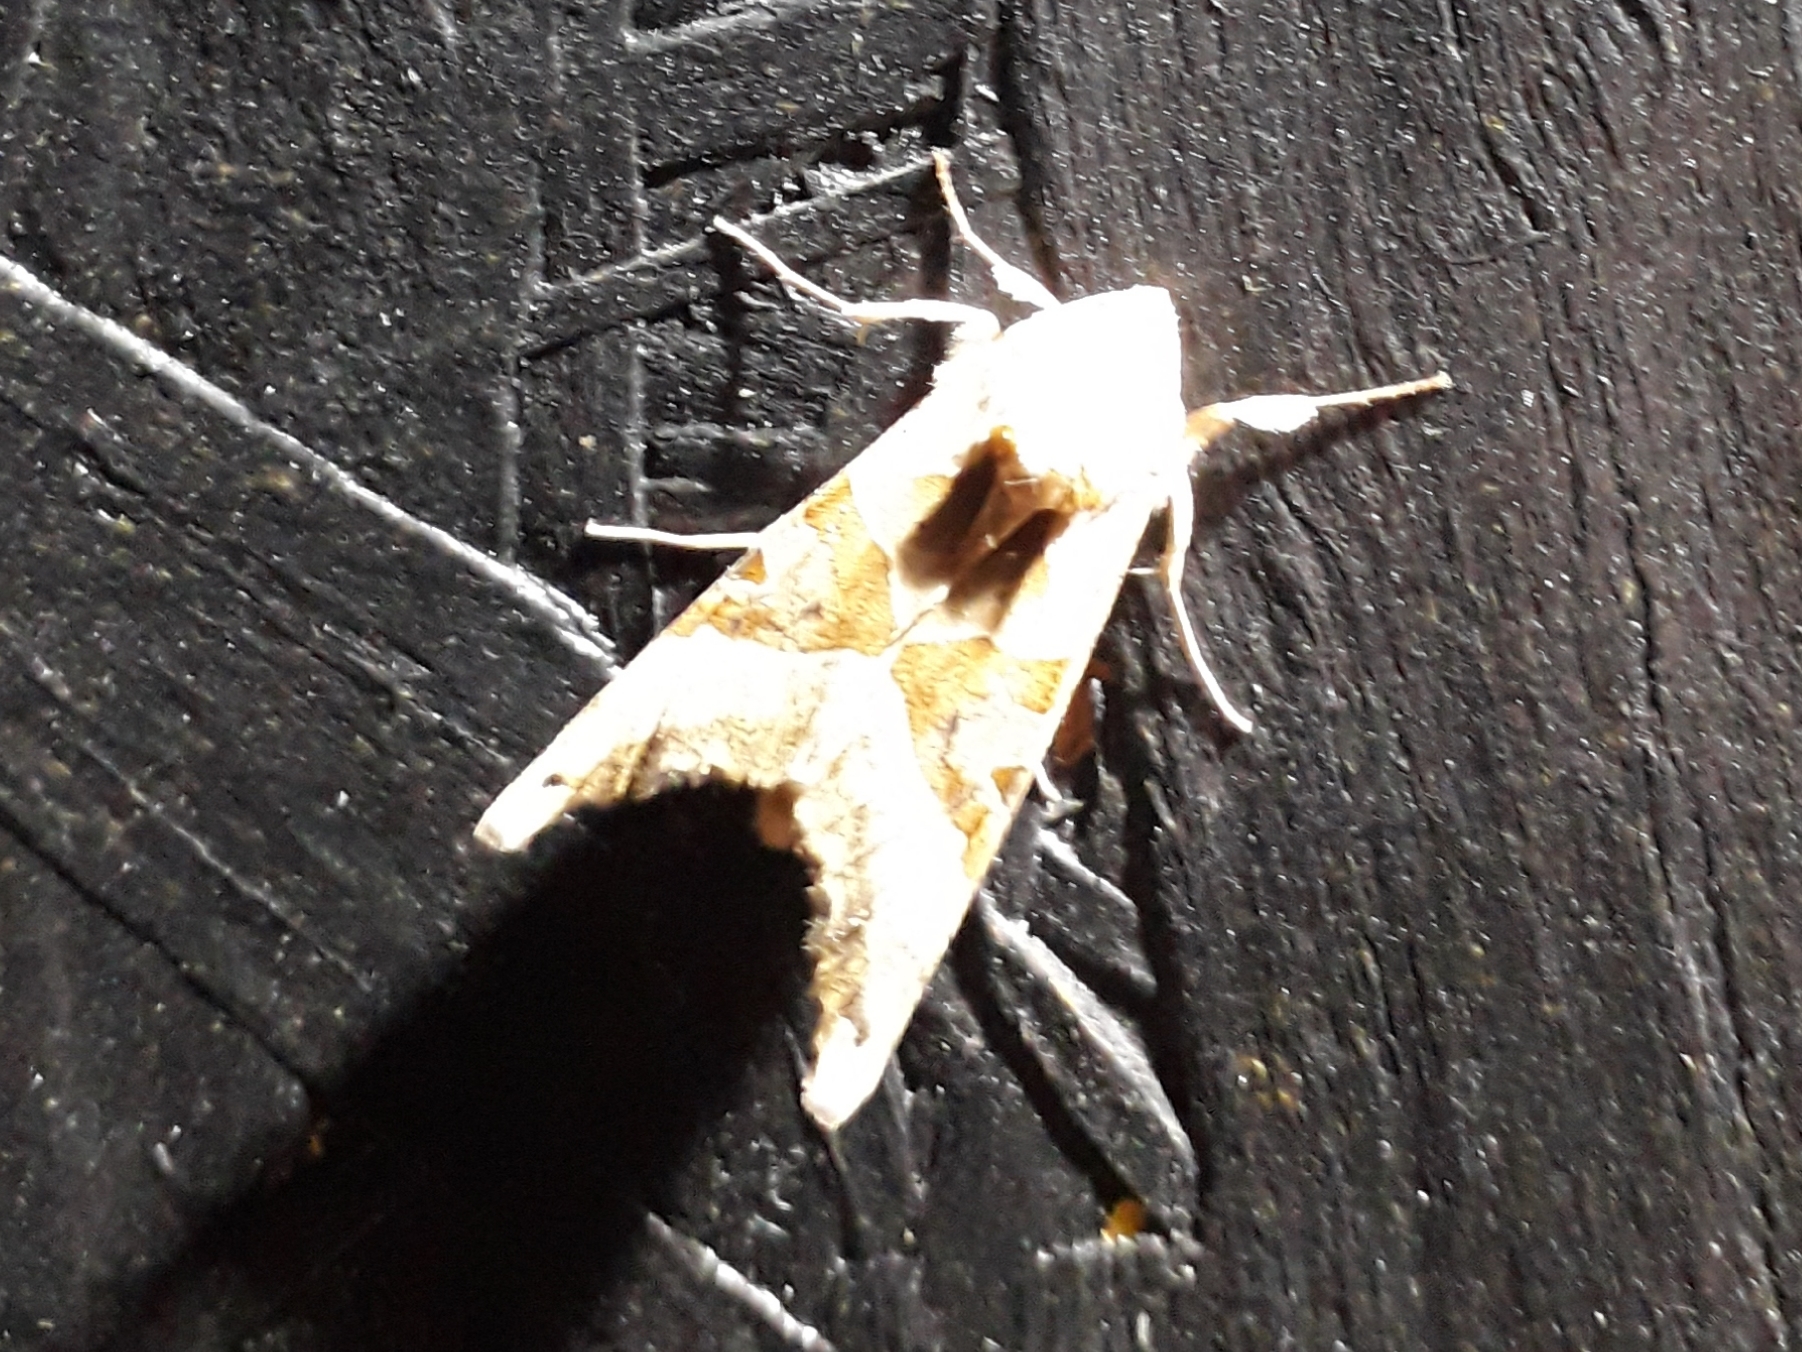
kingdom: Animalia
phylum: Arthropoda
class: Insecta
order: Lepidoptera
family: Noctuidae
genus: Phlogophora
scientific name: Phlogophora meticulosa
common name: Angle shades
